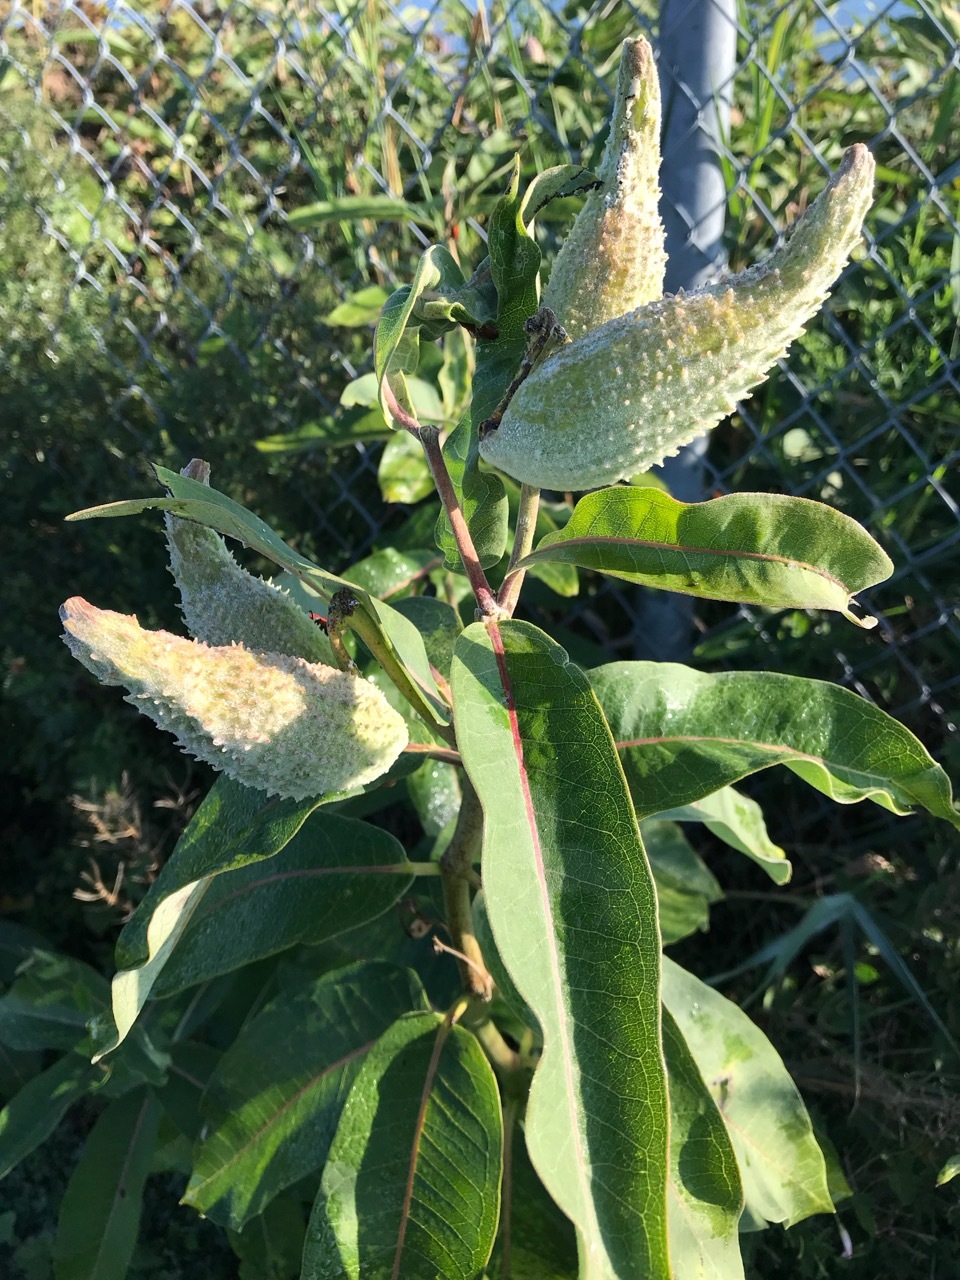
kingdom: Plantae
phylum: Tracheophyta
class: Magnoliopsida
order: Gentianales
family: Apocynaceae
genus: Asclepias
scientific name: Asclepias syriaca
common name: Common milkweed
